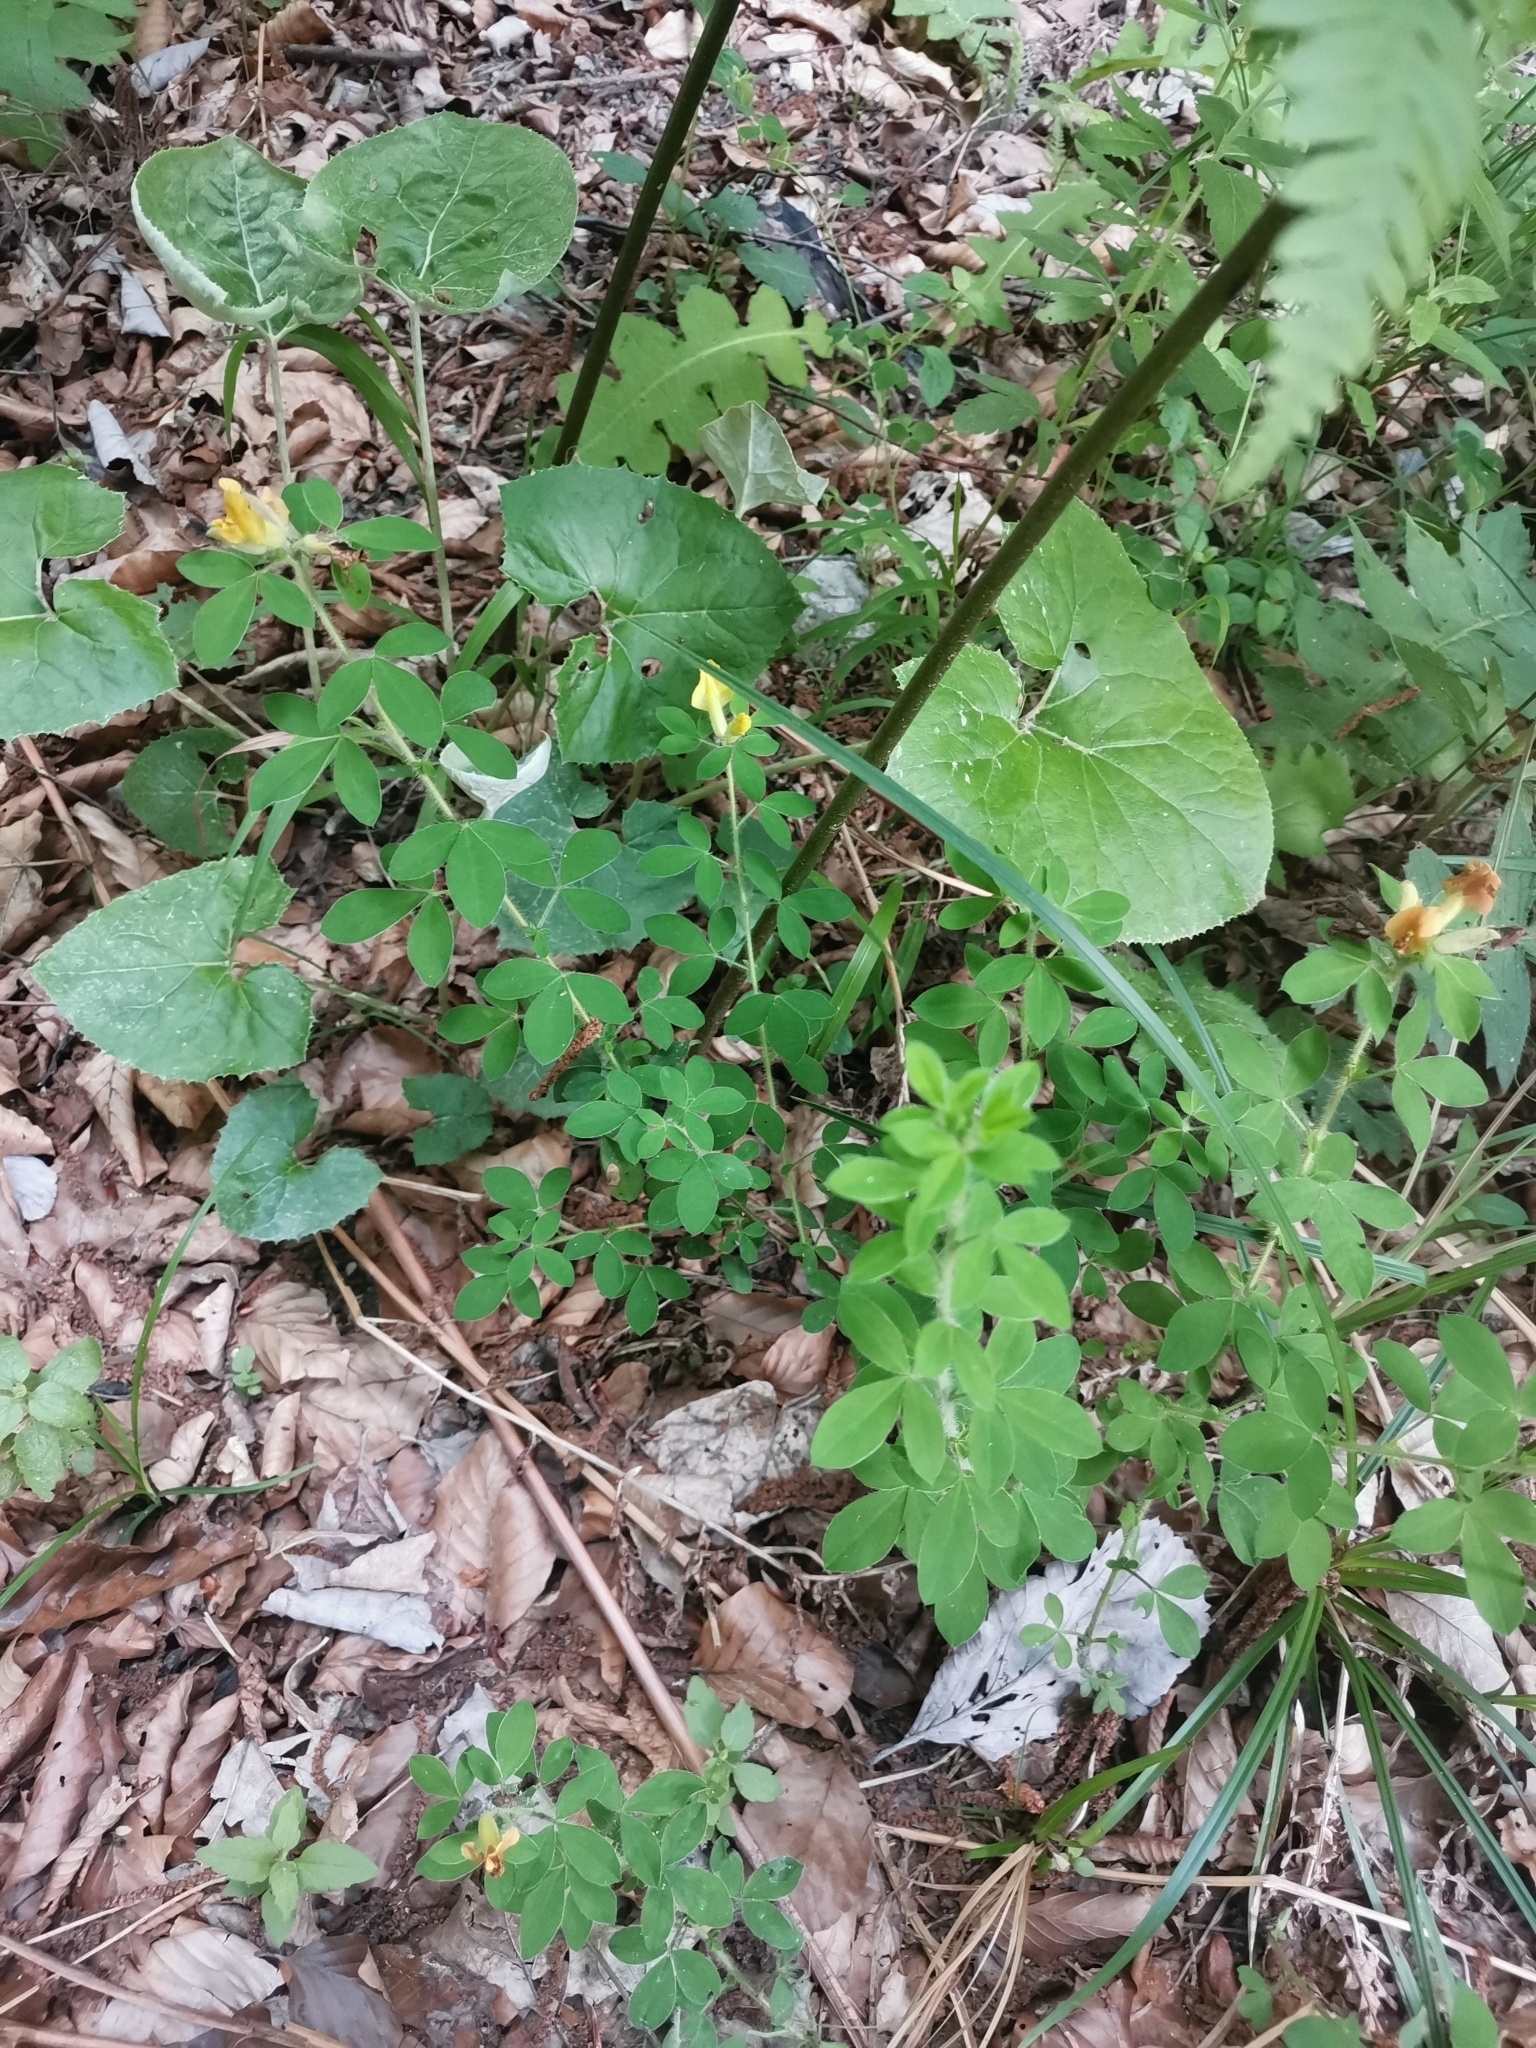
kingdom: Plantae
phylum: Tracheophyta
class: Magnoliopsida
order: Fabales
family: Fabaceae
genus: Chamaecytisus
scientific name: Chamaecytisus supinus
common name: Clustered broom
